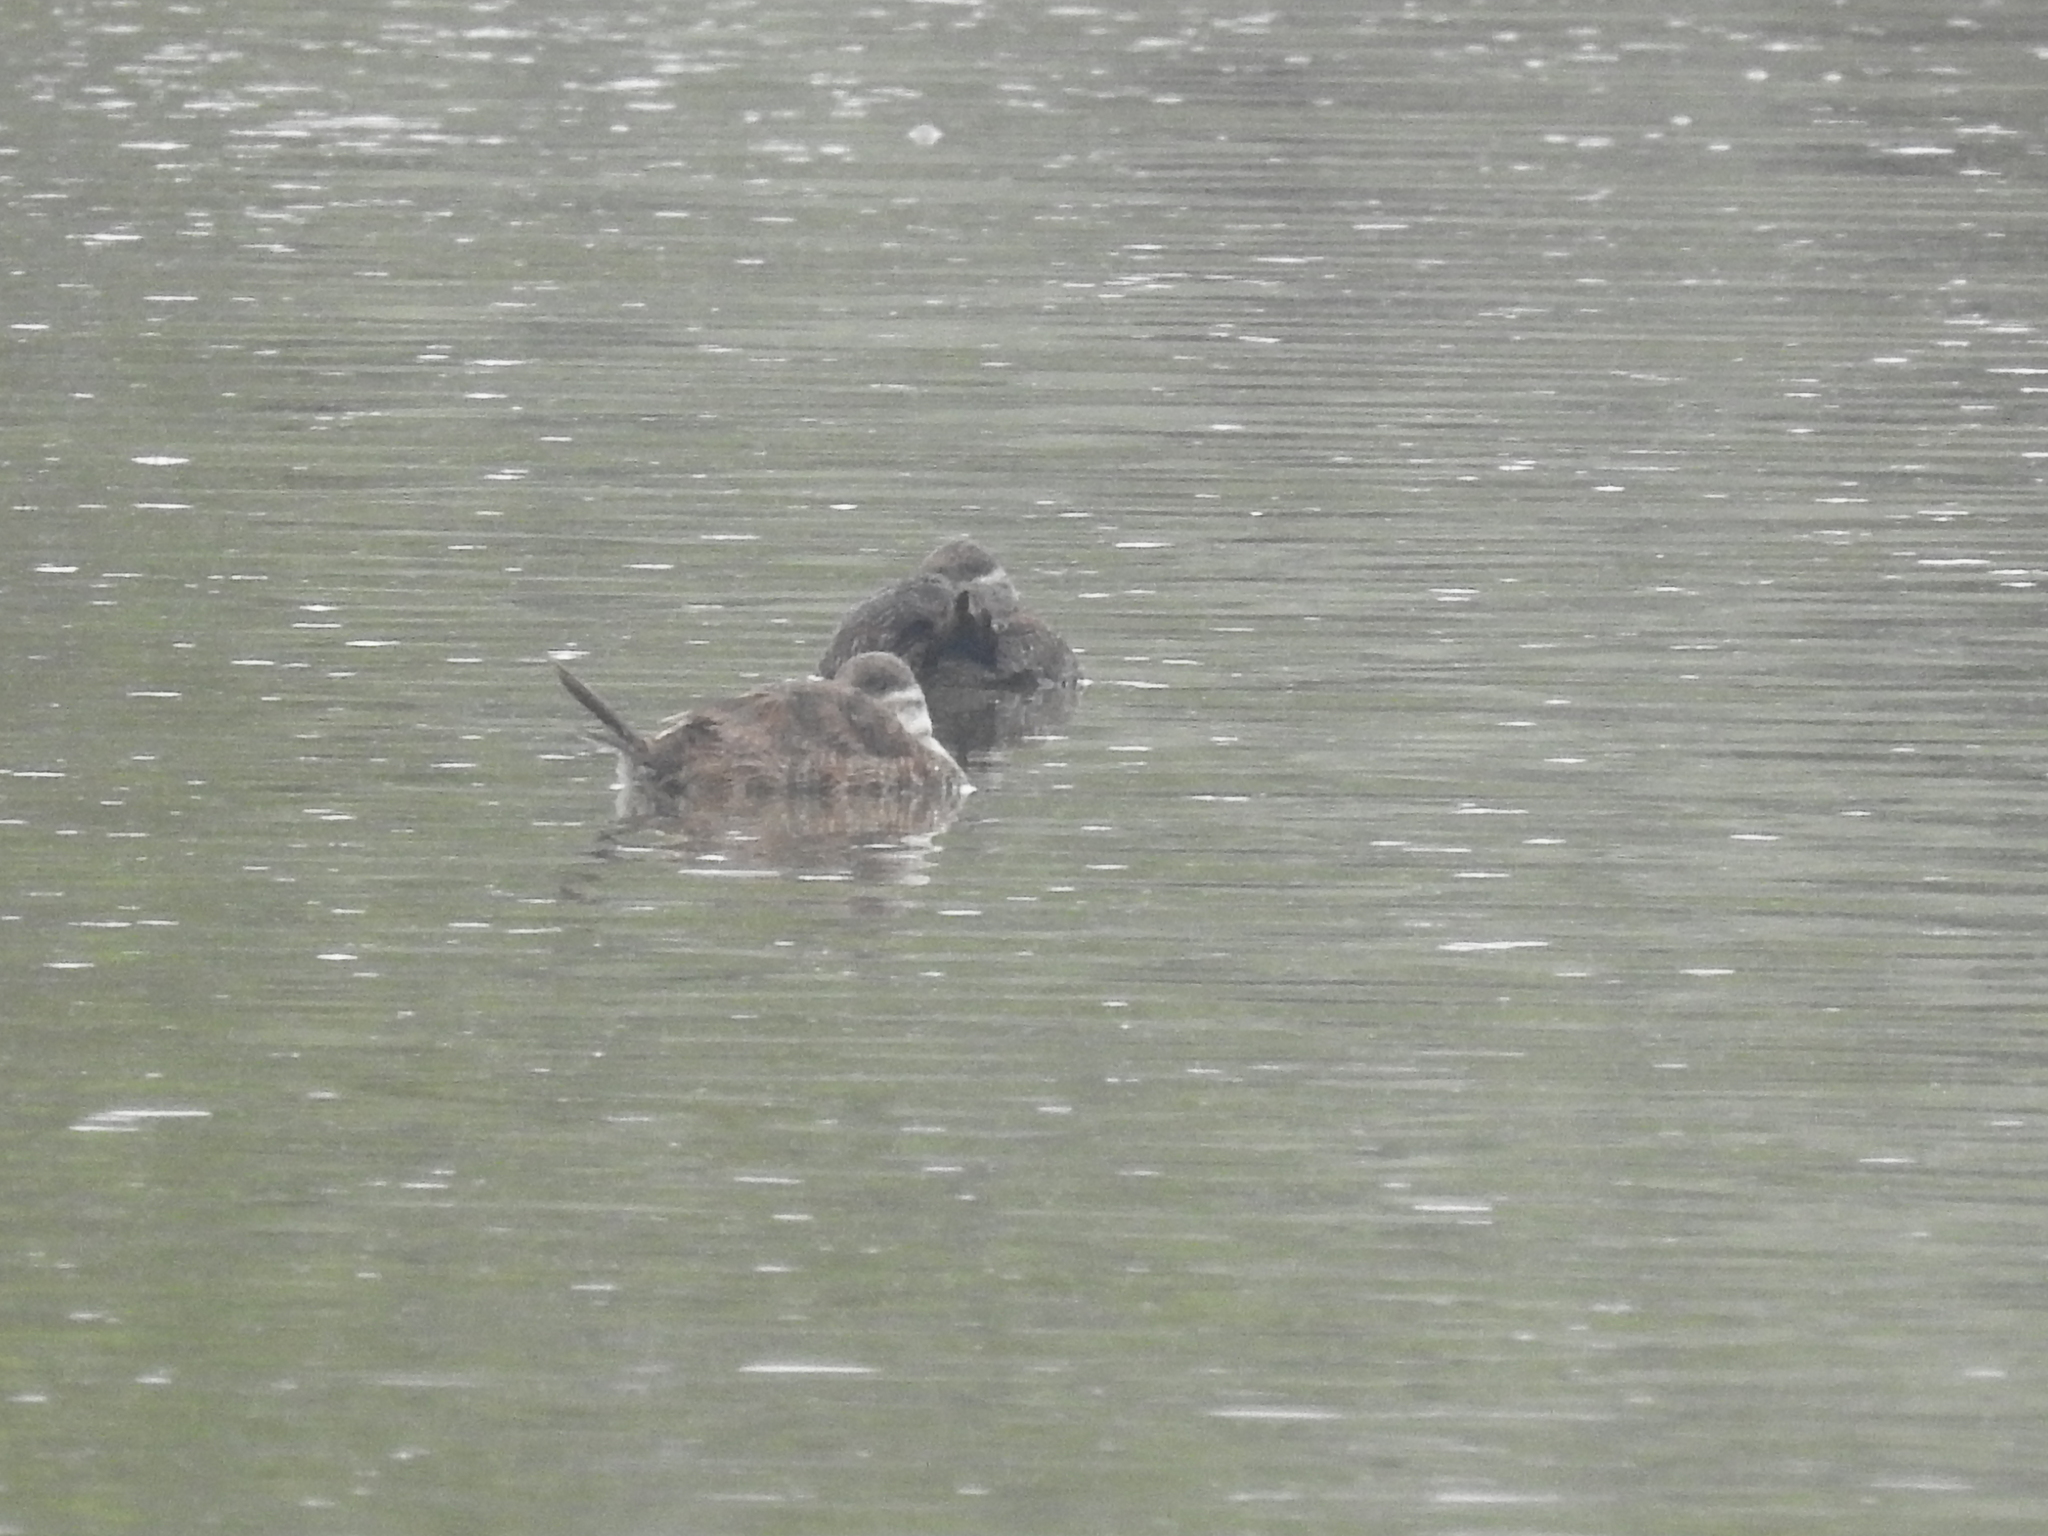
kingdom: Animalia
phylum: Chordata
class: Aves
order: Anseriformes
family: Anatidae
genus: Oxyura
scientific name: Oxyura vittata
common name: Lake duck
